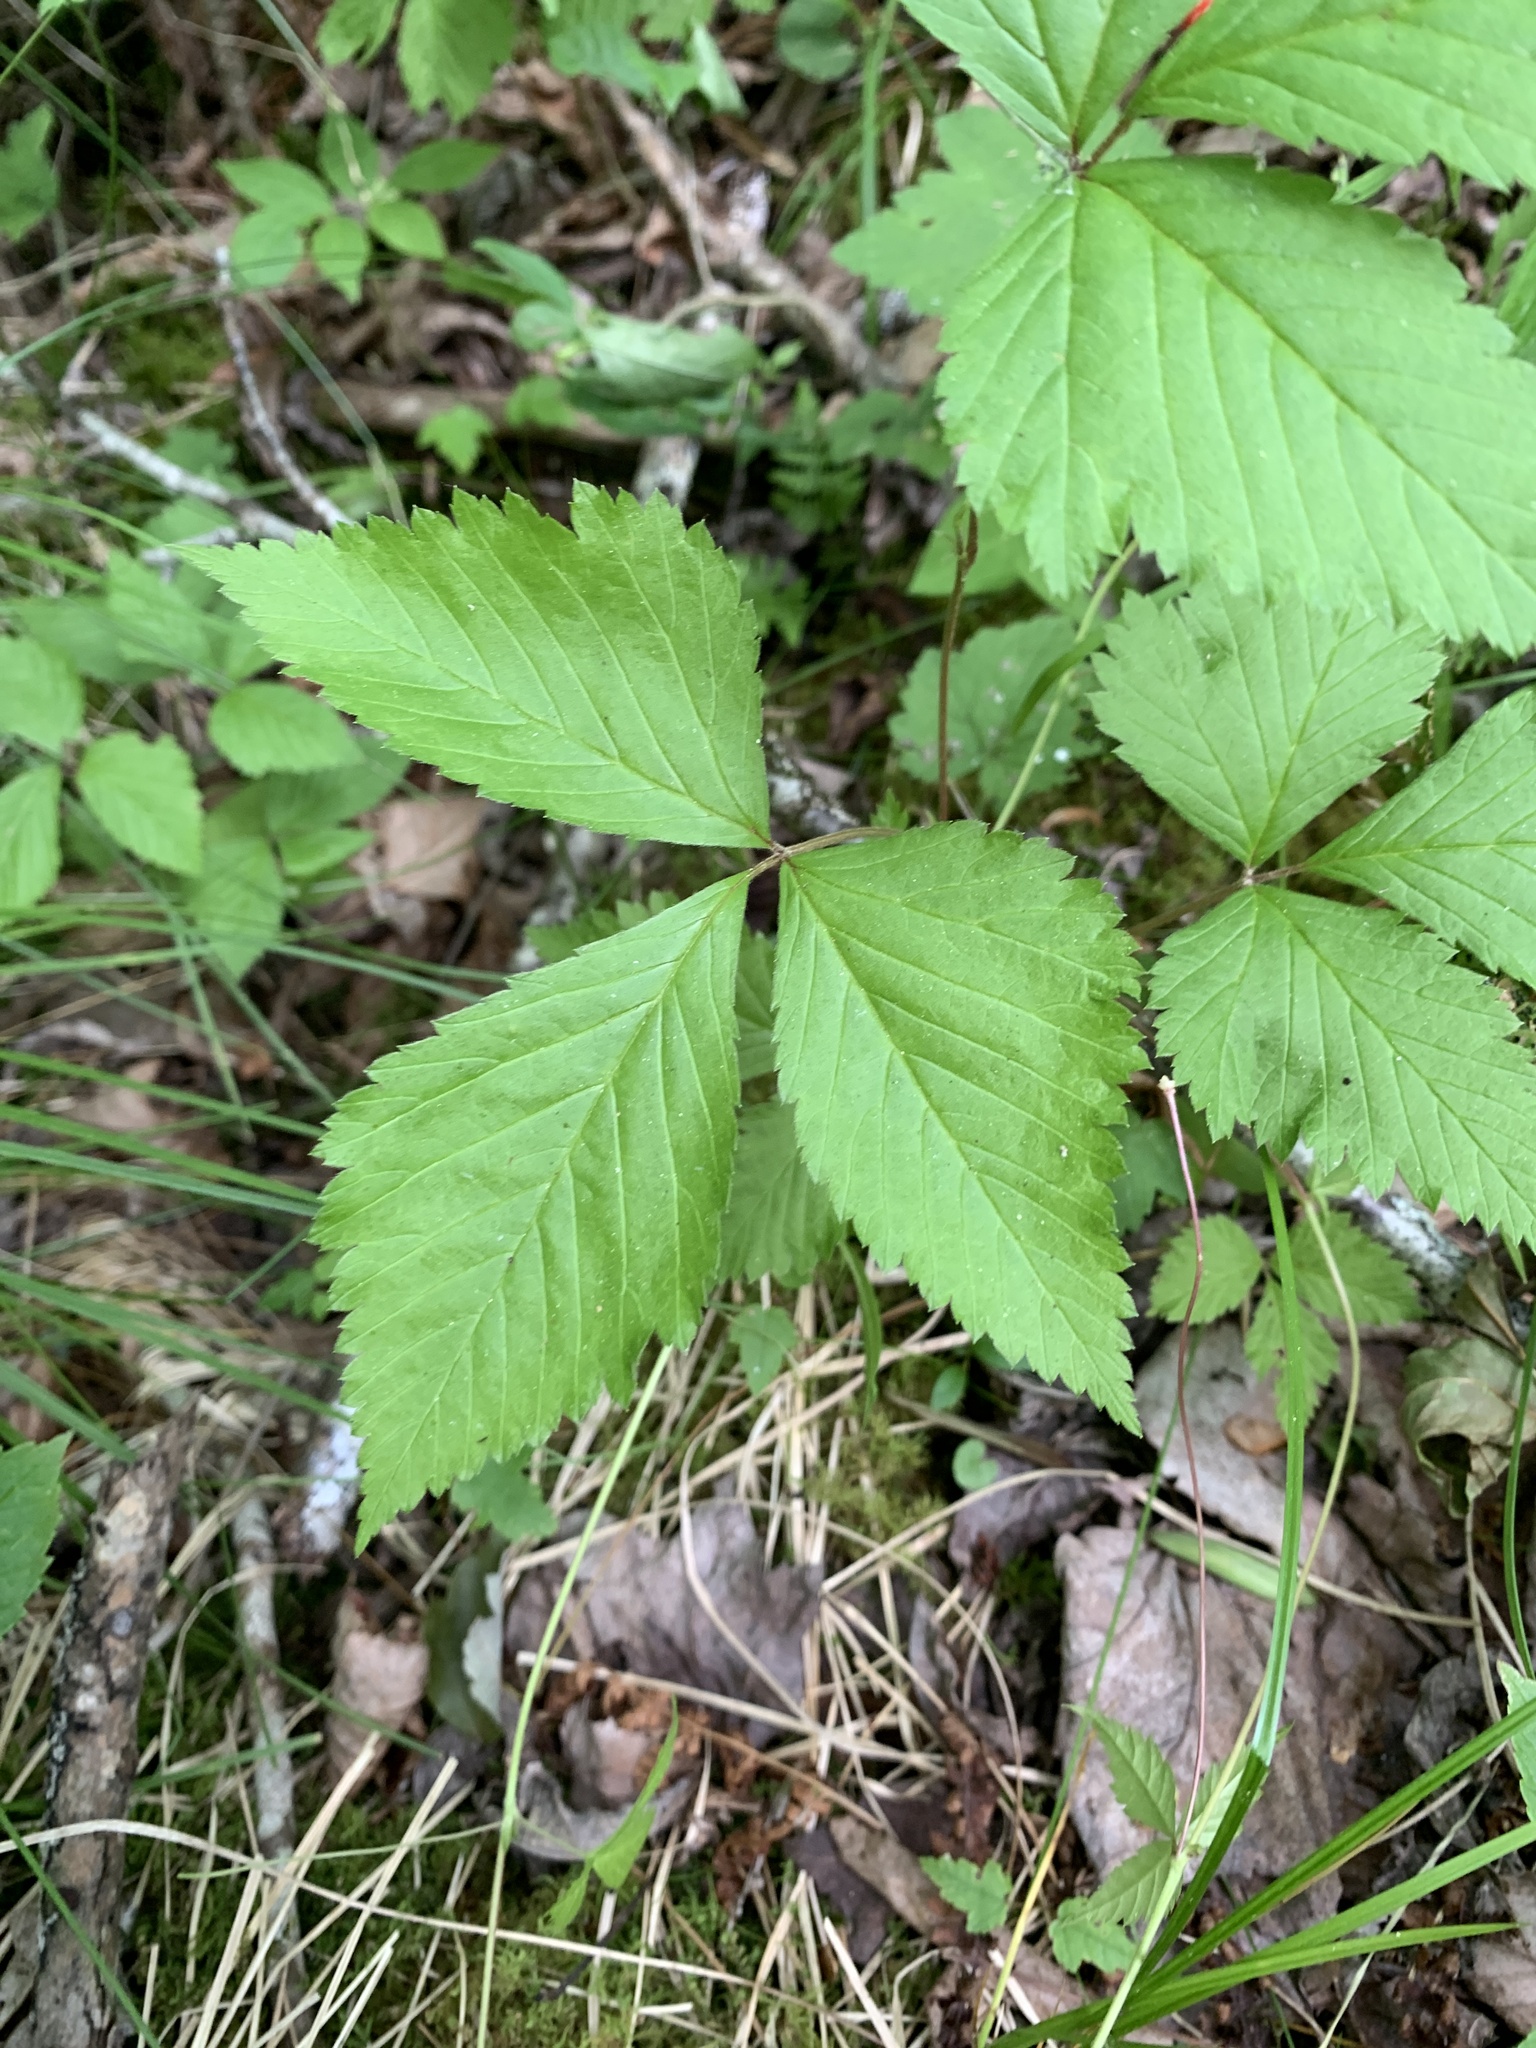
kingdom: Plantae
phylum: Tracheophyta
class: Magnoliopsida
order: Rosales
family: Rosaceae
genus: Rubus
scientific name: Rubus pubescens
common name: Dwarf raspberry
